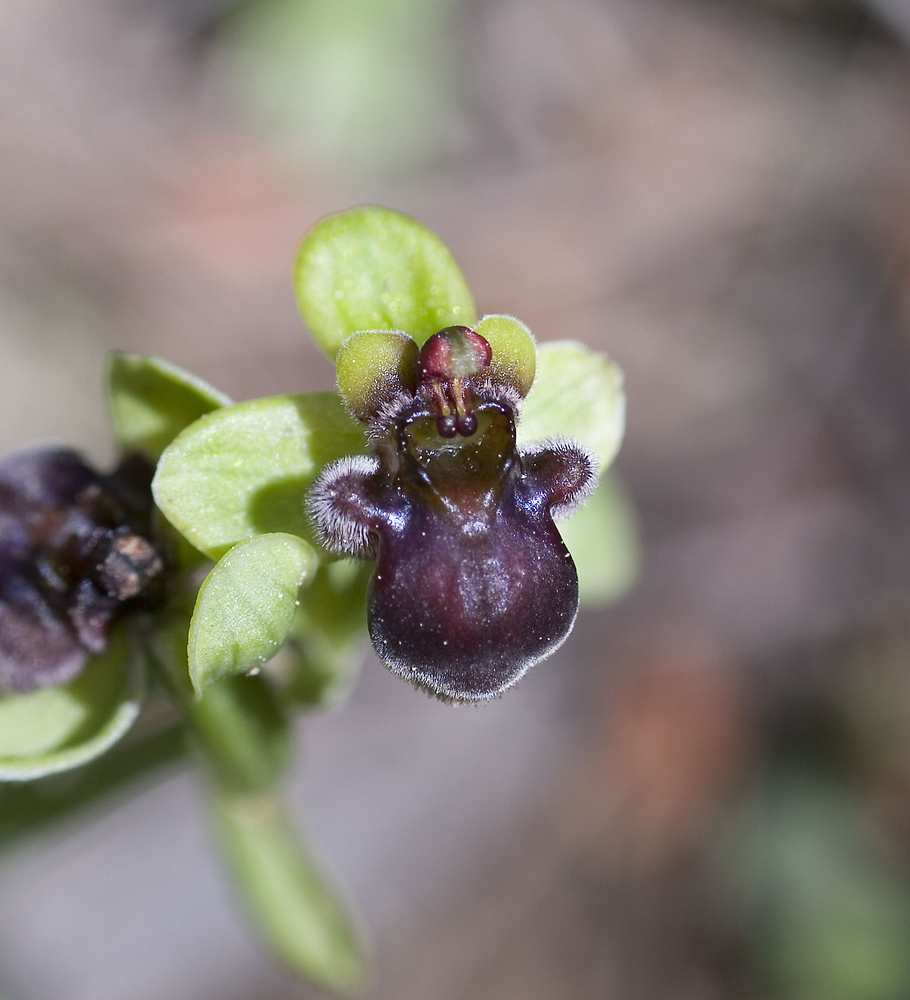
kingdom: Plantae
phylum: Tracheophyta
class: Liliopsida
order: Asparagales
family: Orchidaceae
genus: Ophrys
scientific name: Ophrys bombyliflora
